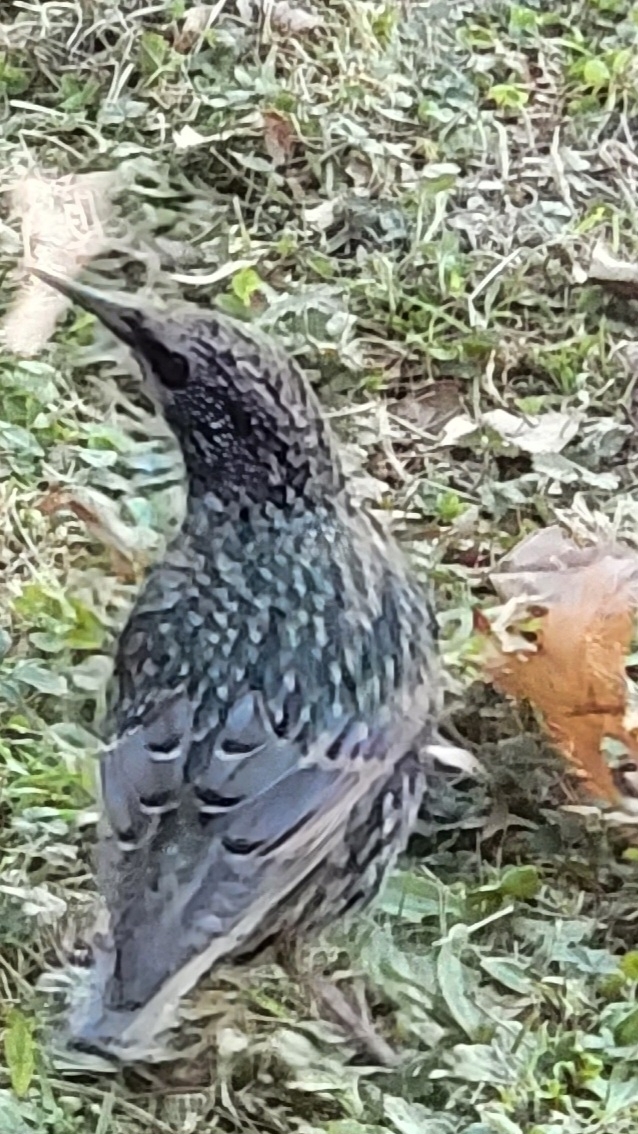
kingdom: Animalia
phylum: Chordata
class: Aves
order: Passeriformes
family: Sturnidae
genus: Sturnus
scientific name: Sturnus vulgaris
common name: Common starling
